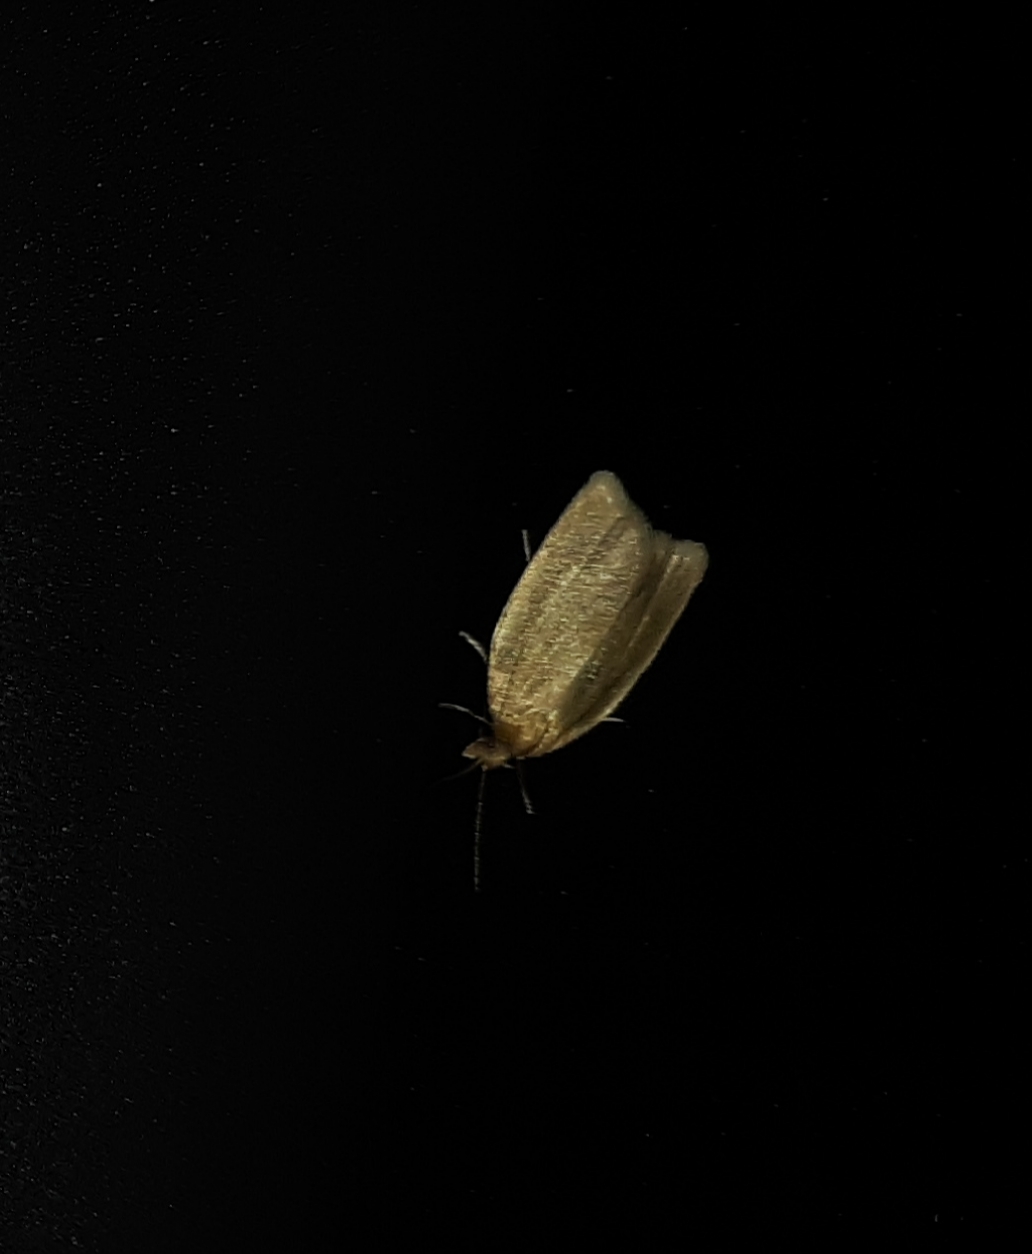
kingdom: Animalia
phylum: Arthropoda
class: Insecta
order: Lepidoptera
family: Tortricidae
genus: Clepsis
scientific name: Clepsis clemensiana
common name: Clemens' clepsis moth
